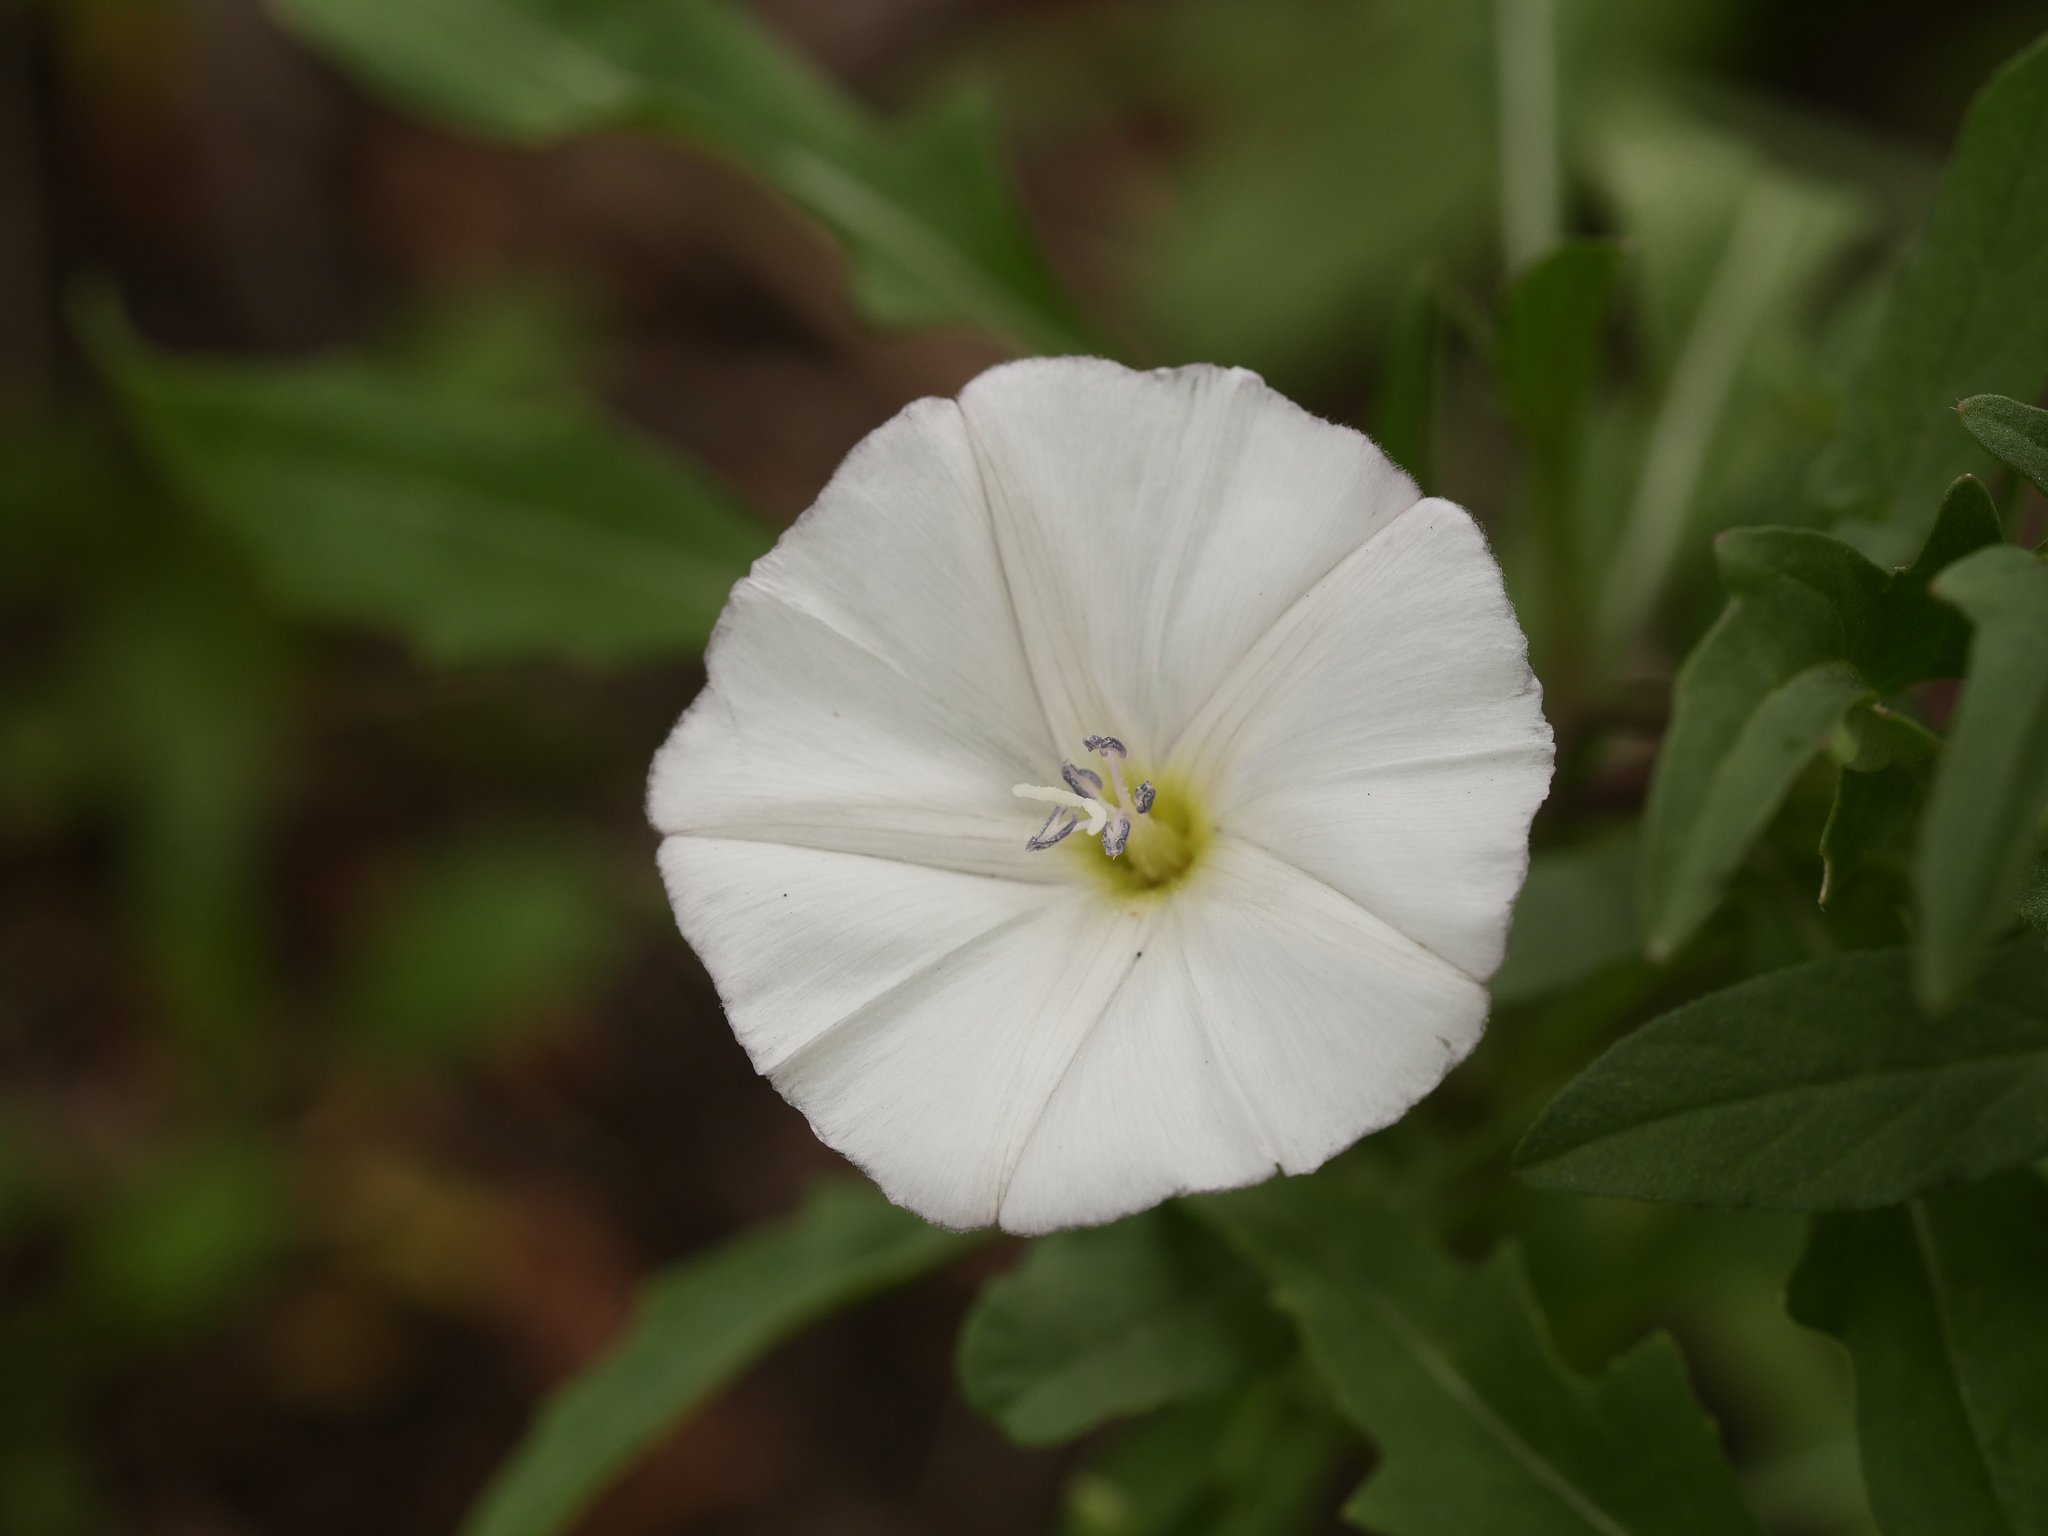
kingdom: Plantae
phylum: Tracheophyta
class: Magnoliopsida
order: Solanales
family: Convolvulaceae
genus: Convolvulus
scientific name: Convolvulus arvensis
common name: Field bindweed
